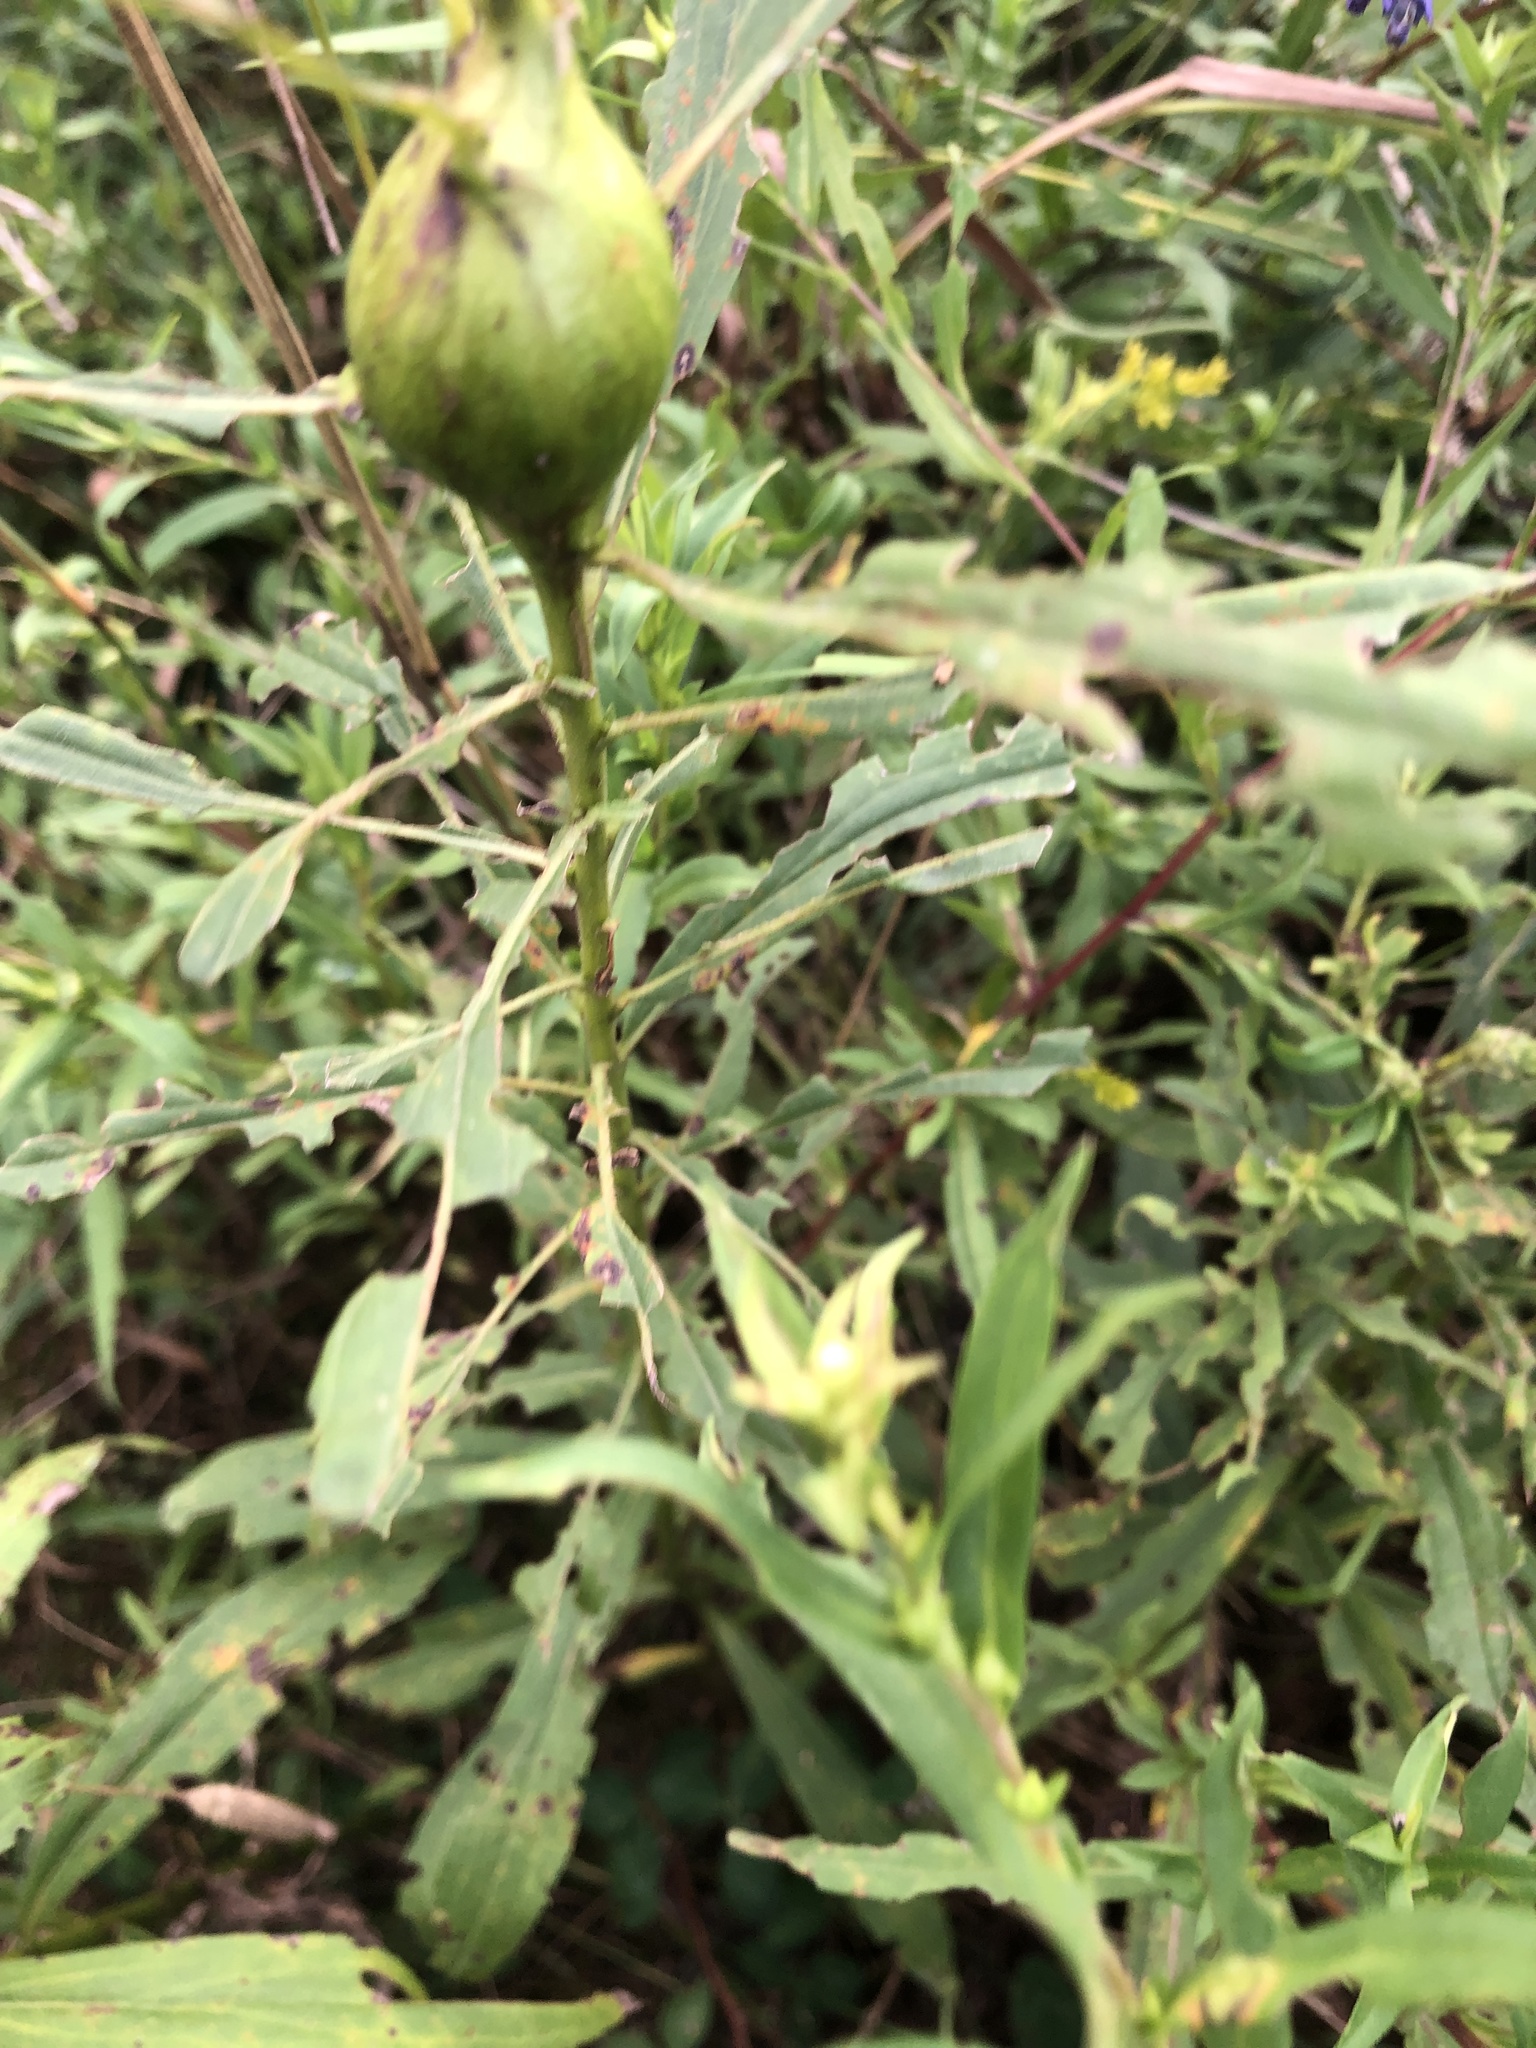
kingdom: Animalia
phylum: Arthropoda
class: Insecta
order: Diptera
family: Tephritidae
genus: Eurosta
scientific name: Eurosta solidaginis
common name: Goldenrod gall fly
